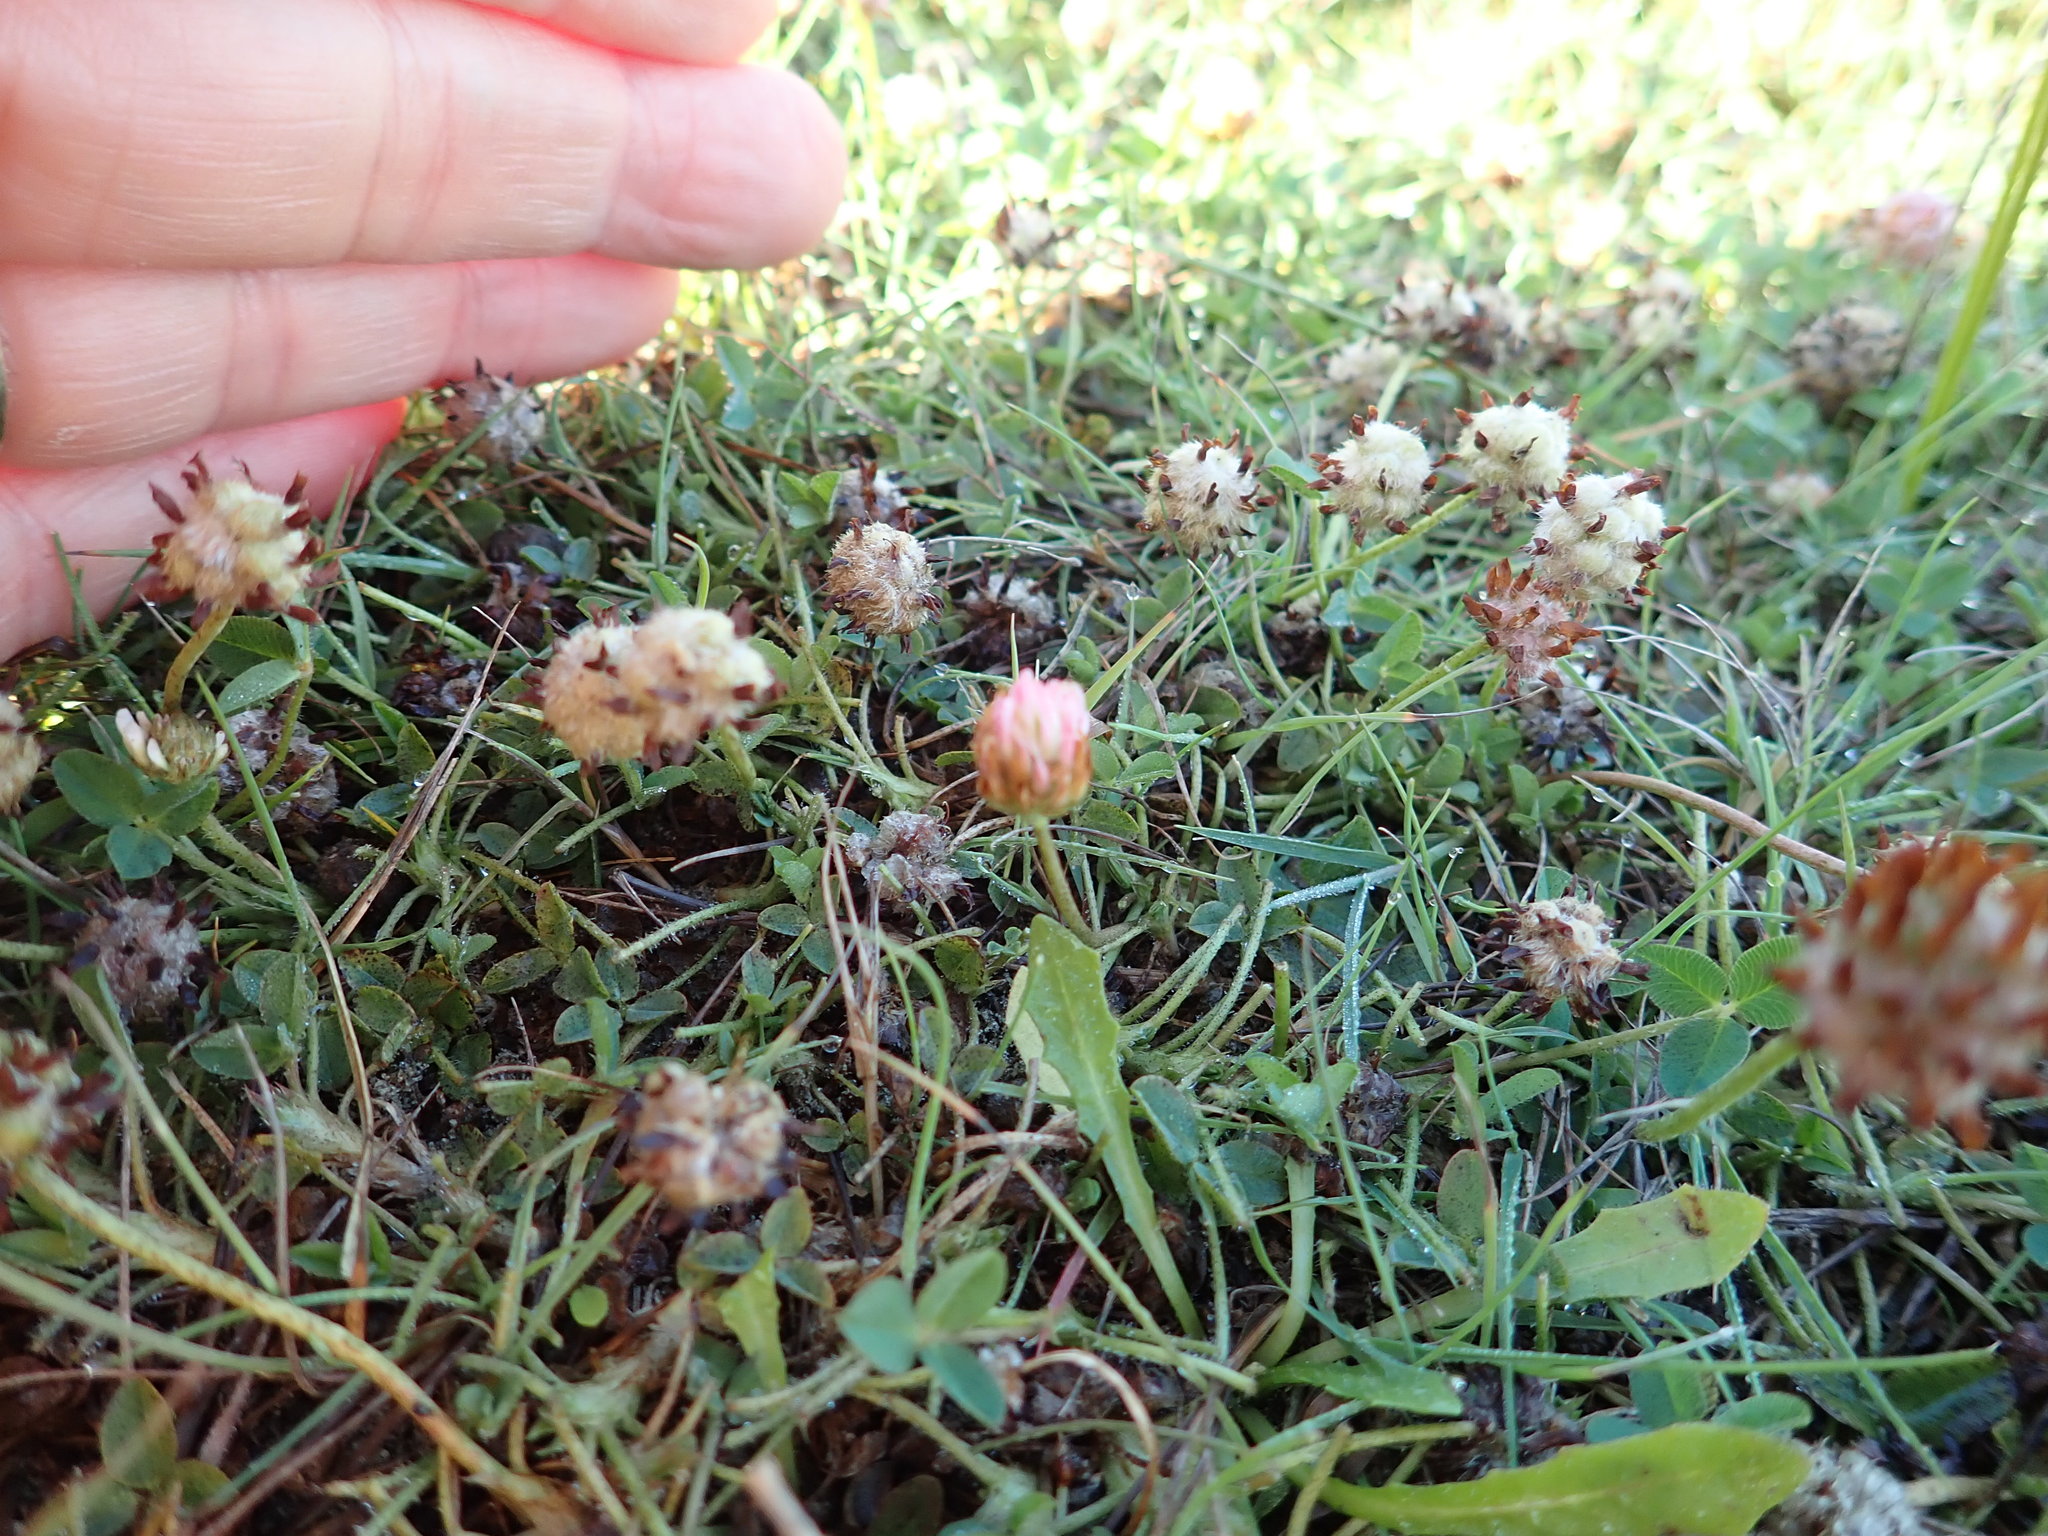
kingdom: Plantae
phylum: Tracheophyta
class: Magnoliopsida
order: Fabales
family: Fabaceae
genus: Trifolium
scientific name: Trifolium fragiferum
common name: Strawberry clover
